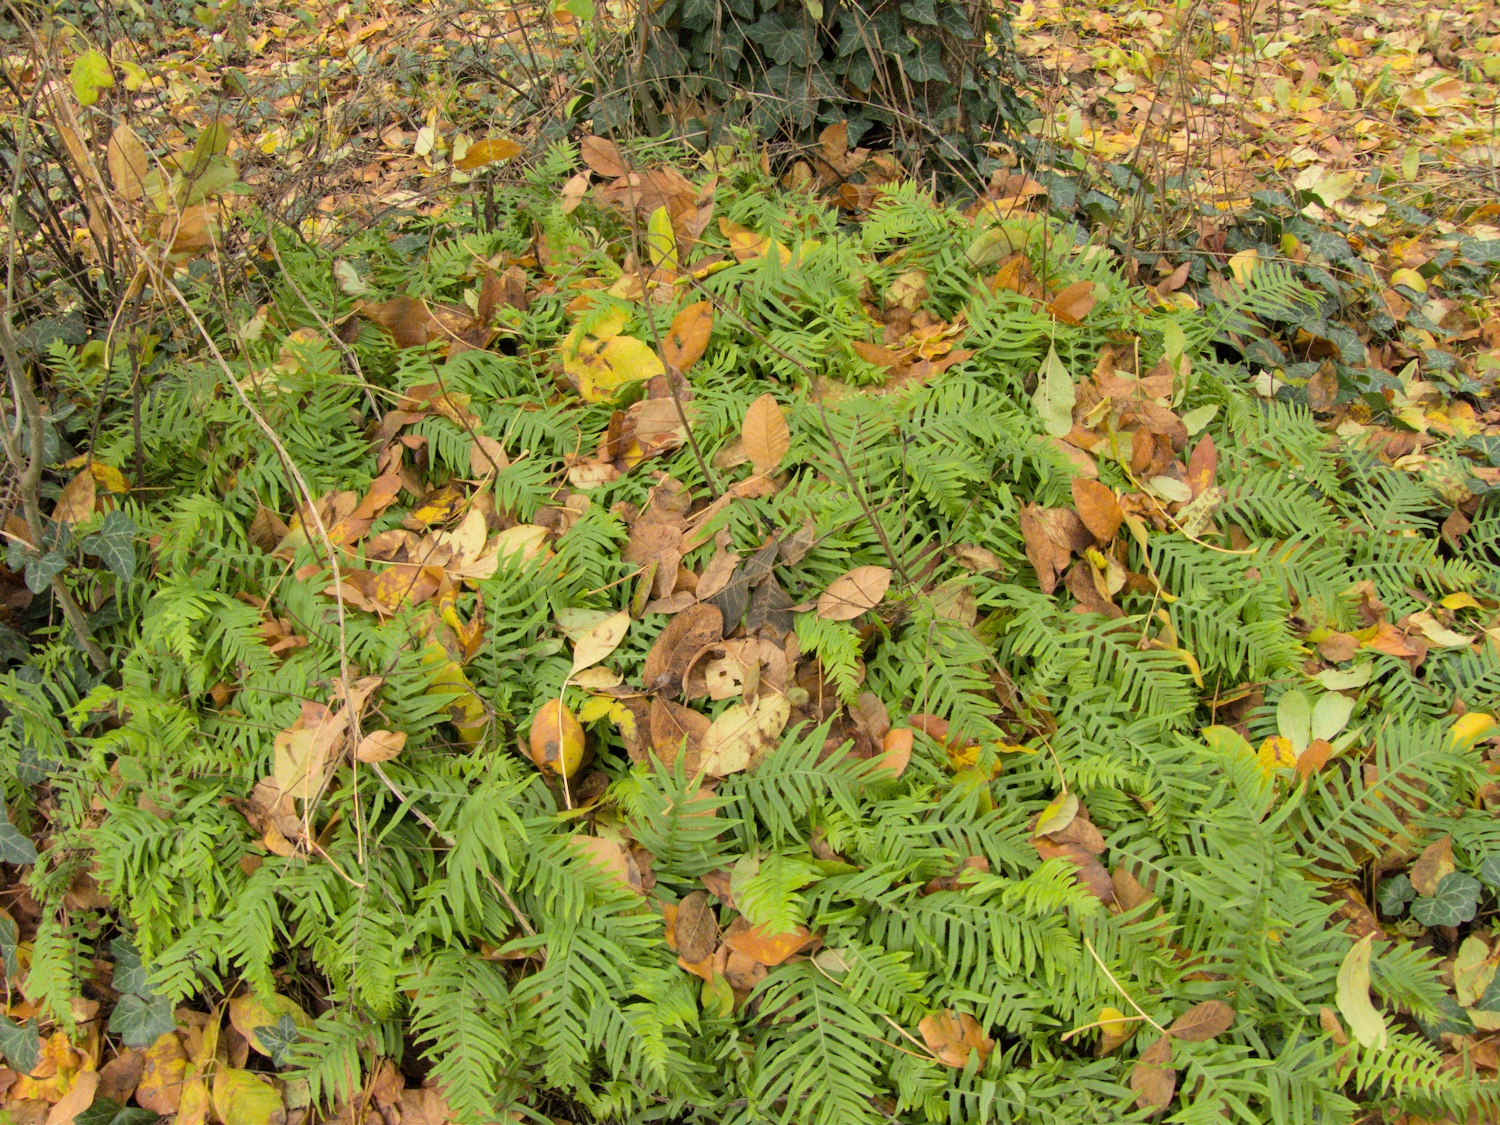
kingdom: Plantae
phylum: Tracheophyta
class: Polypodiopsida
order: Polypodiales
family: Polypodiaceae
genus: Polypodium
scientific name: Polypodium glycyrrhiza
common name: Licorice fern
